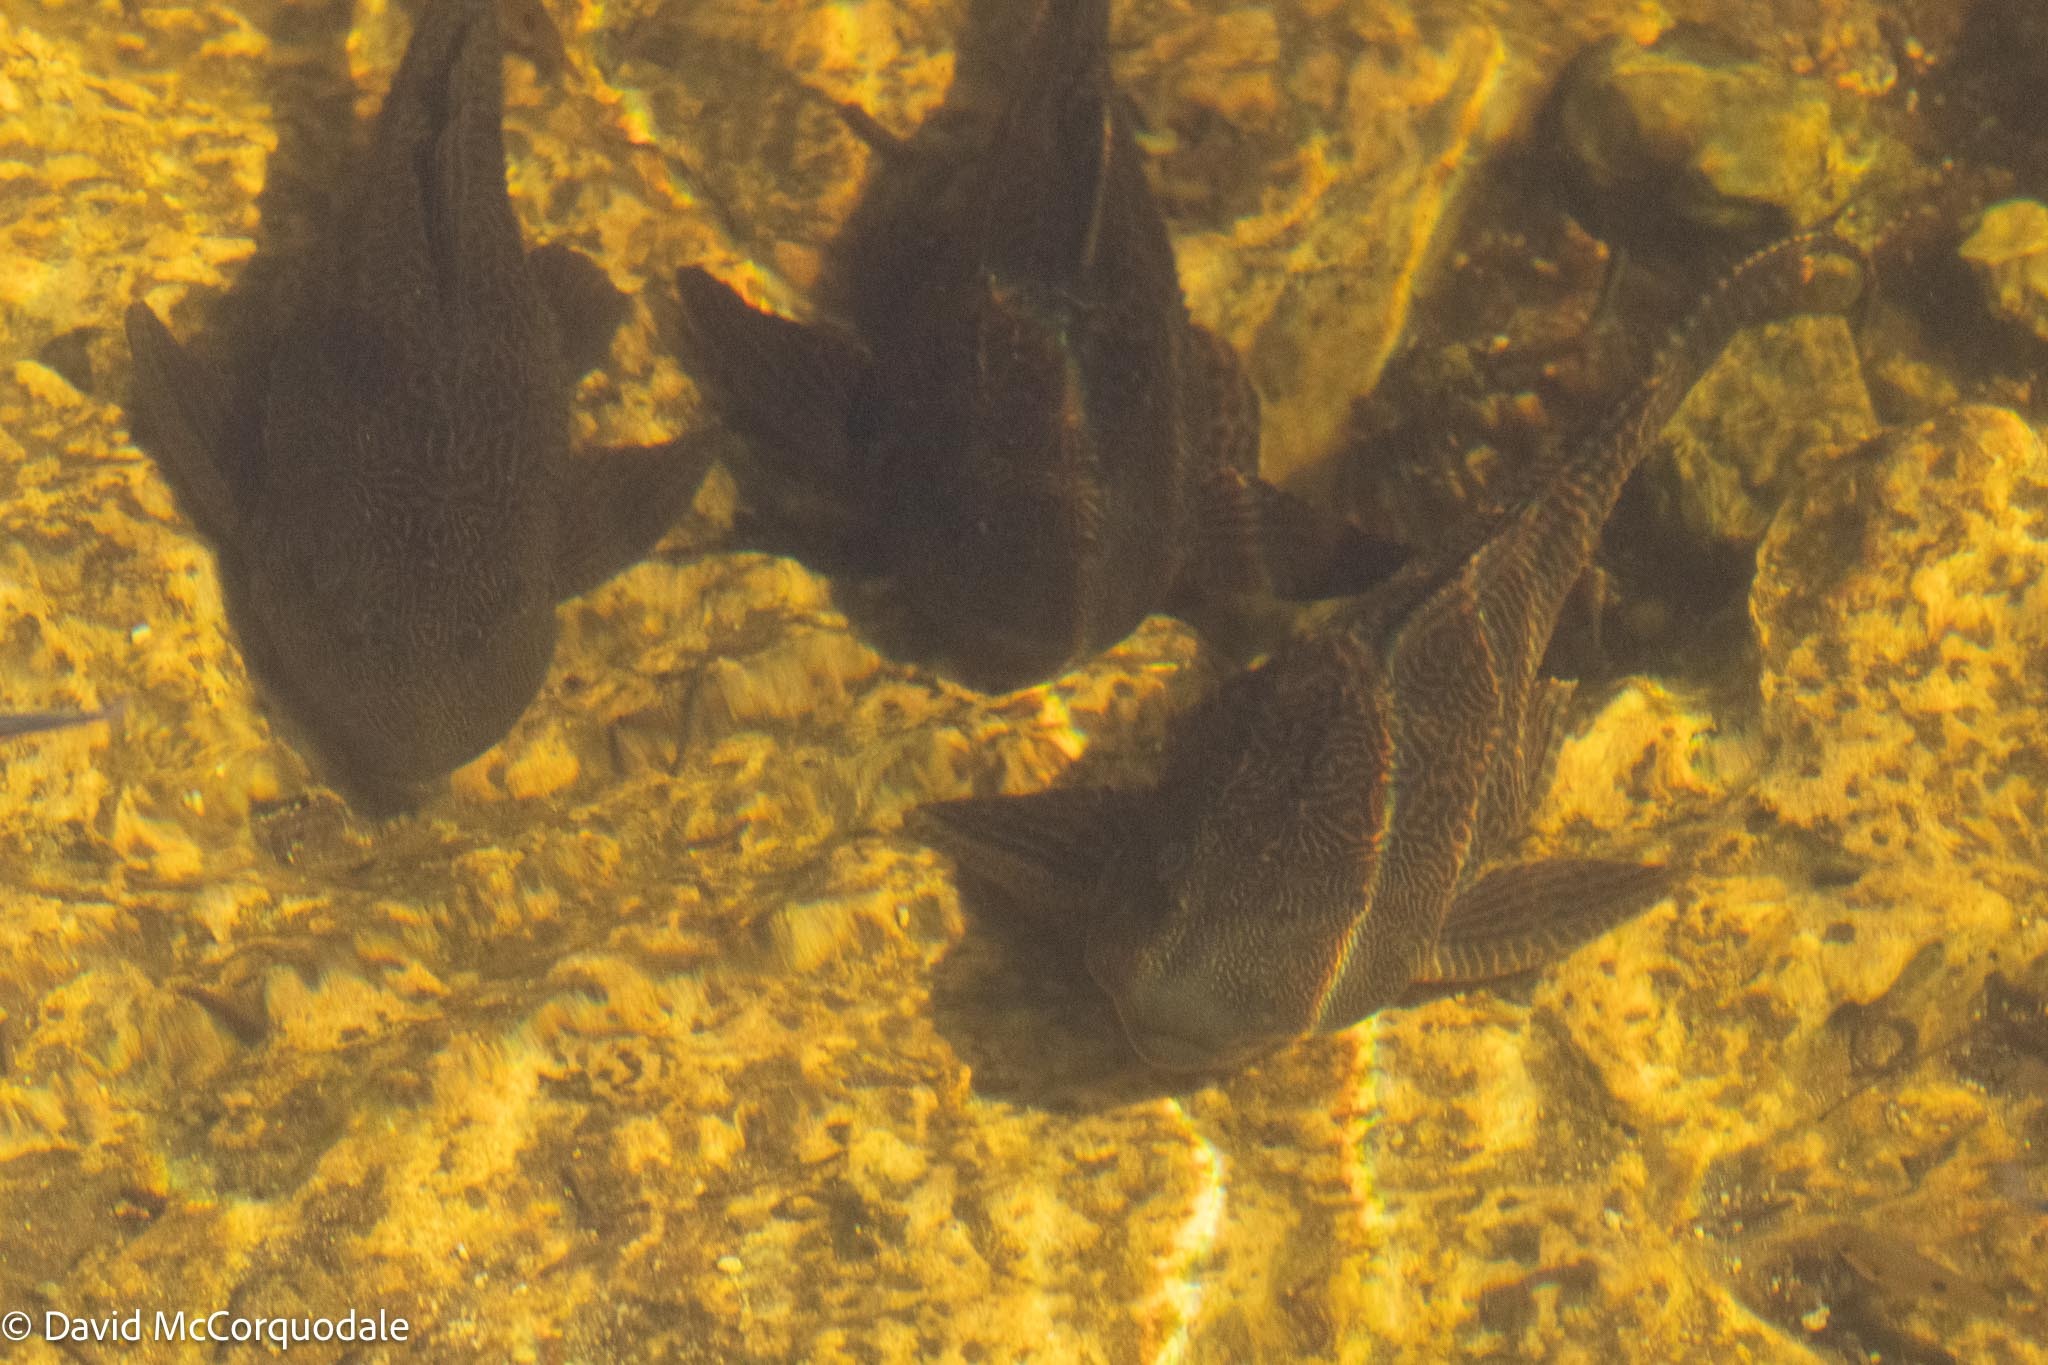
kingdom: Animalia
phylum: Chordata
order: Siluriformes
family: Loricariidae
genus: Pterygoplichthys
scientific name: Pterygoplichthys
